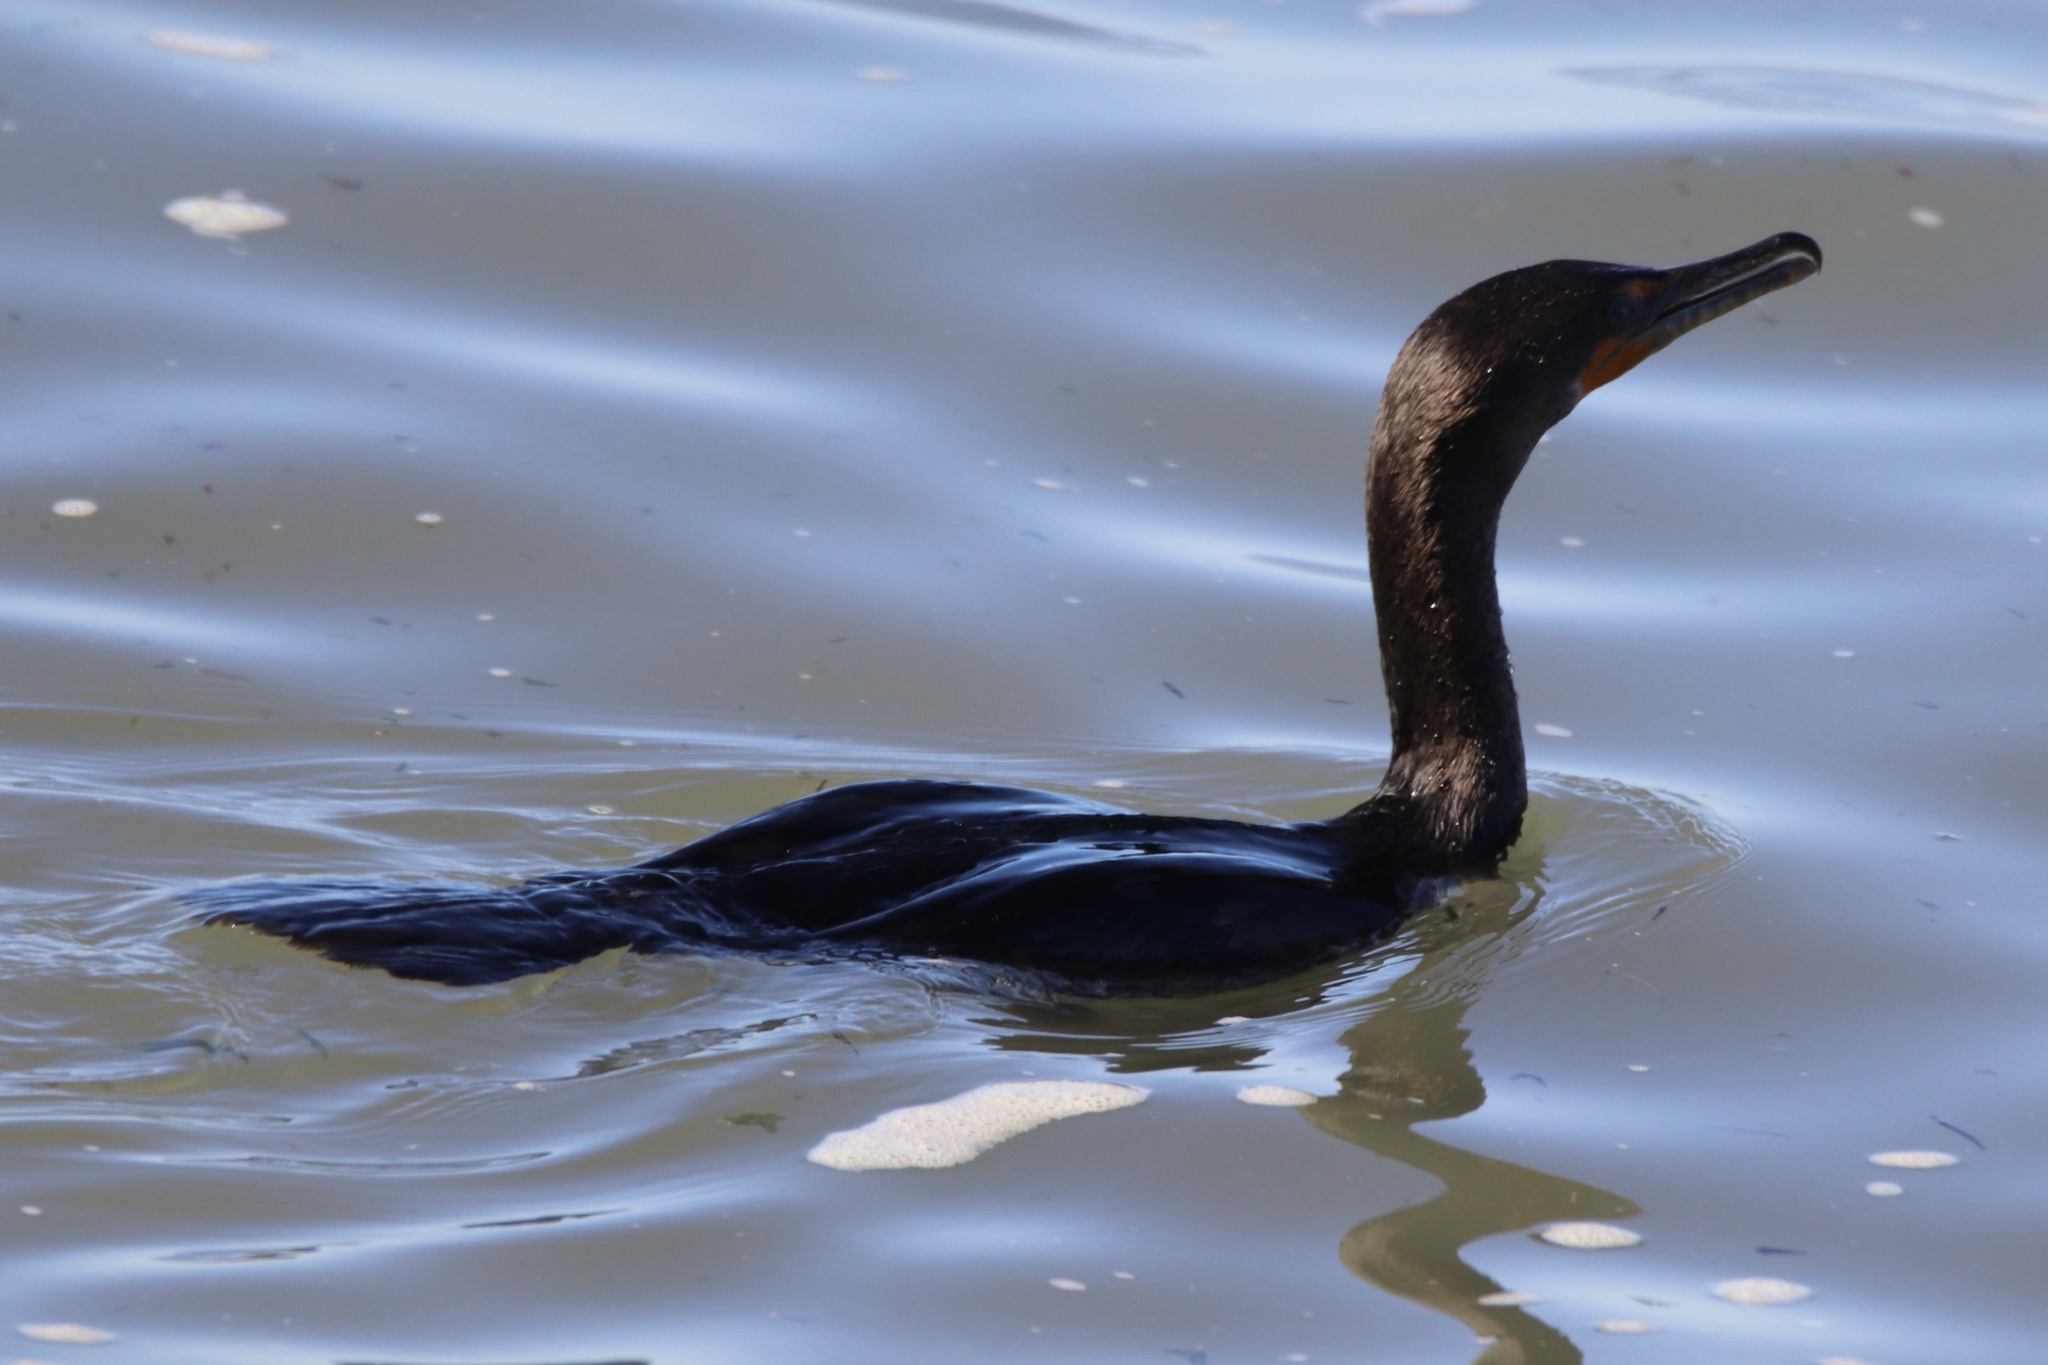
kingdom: Animalia
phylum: Chordata
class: Aves
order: Suliformes
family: Phalacrocoracidae
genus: Phalacrocorax
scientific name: Phalacrocorax auritus
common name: Double-crested cormorant
